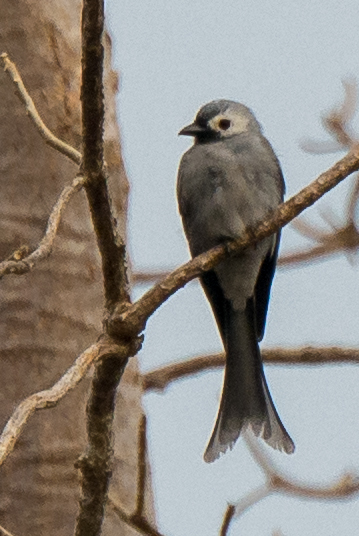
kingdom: Animalia
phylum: Chordata
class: Aves
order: Passeriformes
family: Dicruridae
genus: Dicrurus
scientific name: Dicrurus leucophaeus
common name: Ashy drongo
